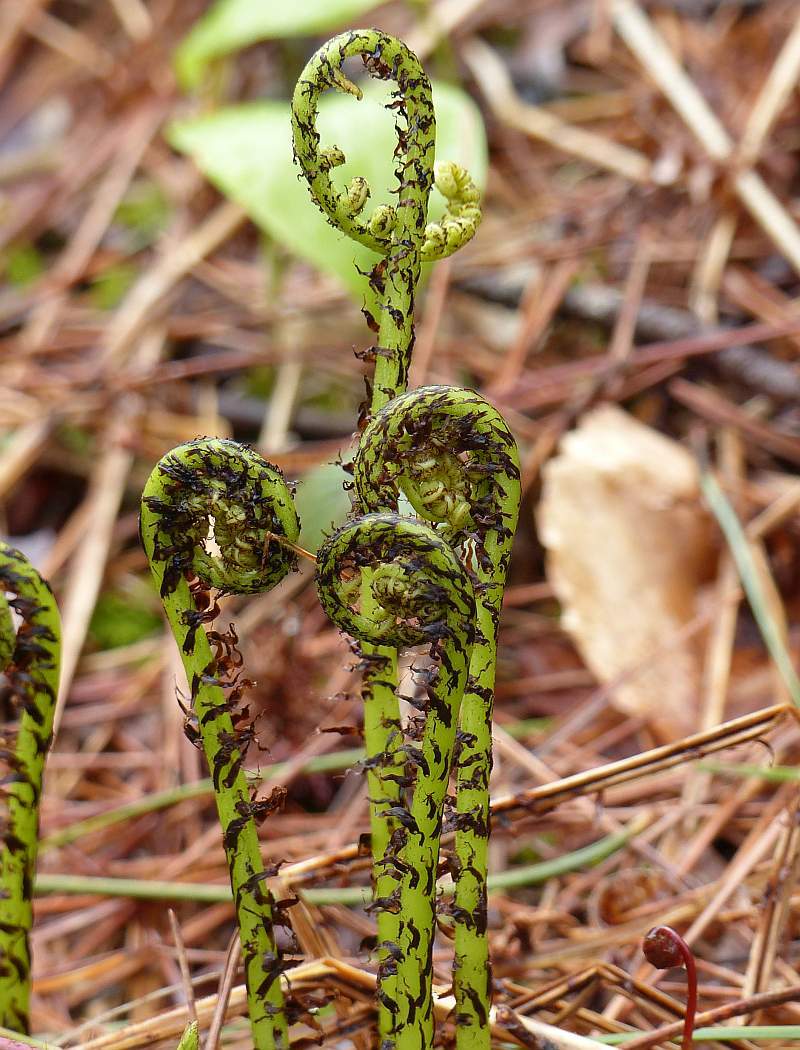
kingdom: Plantae
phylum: Tracheophyta
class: Polypodiopsida
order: Polypodiales
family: Athyriaceae
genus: Athyrium
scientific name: Athyrium angustum
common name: Northern lady fern
